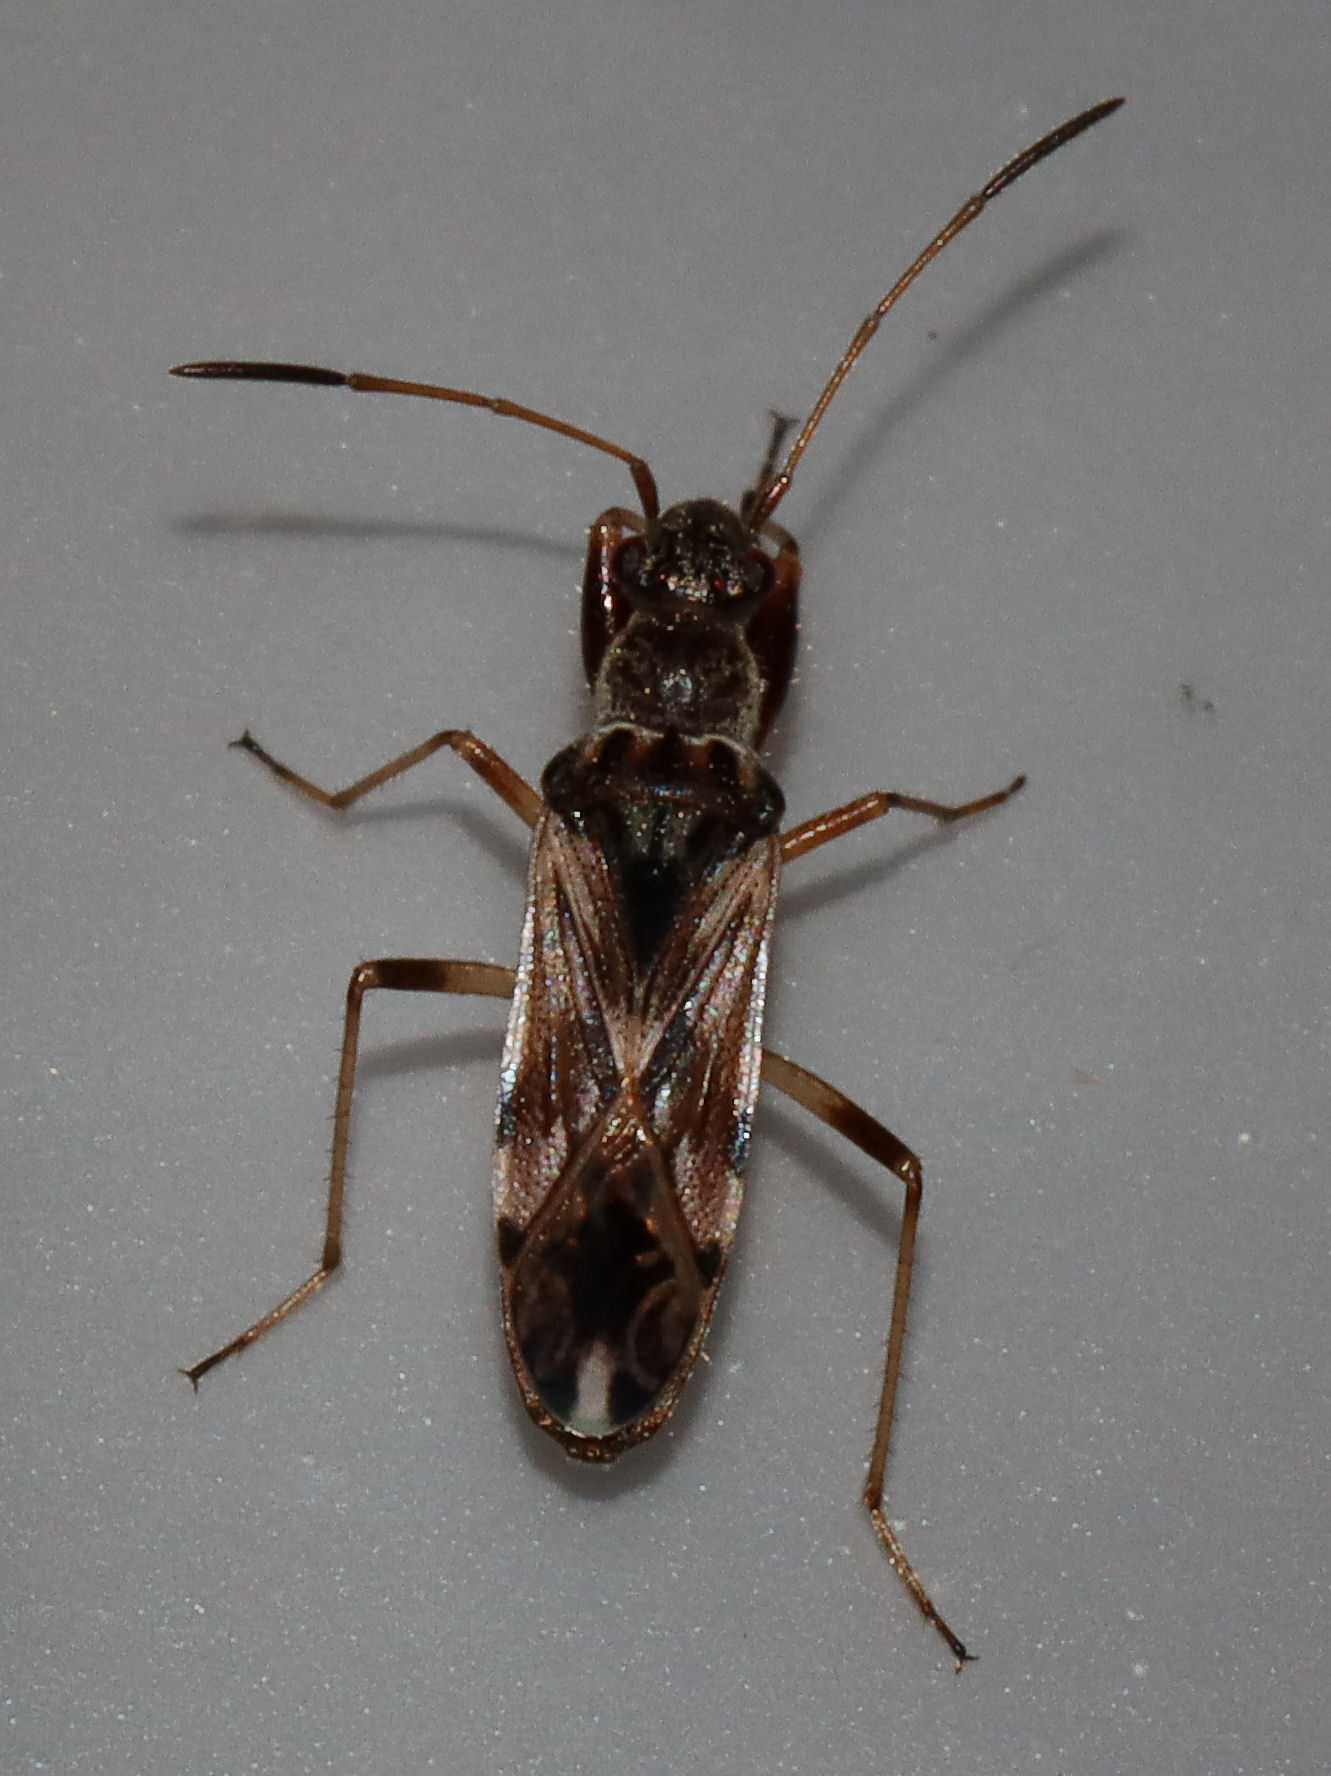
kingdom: Animalia
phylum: Arthropoda
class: Insecta
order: Hemiptera
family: Rhyparochromidae
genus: Neopamera
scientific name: Neopamera bilobata
